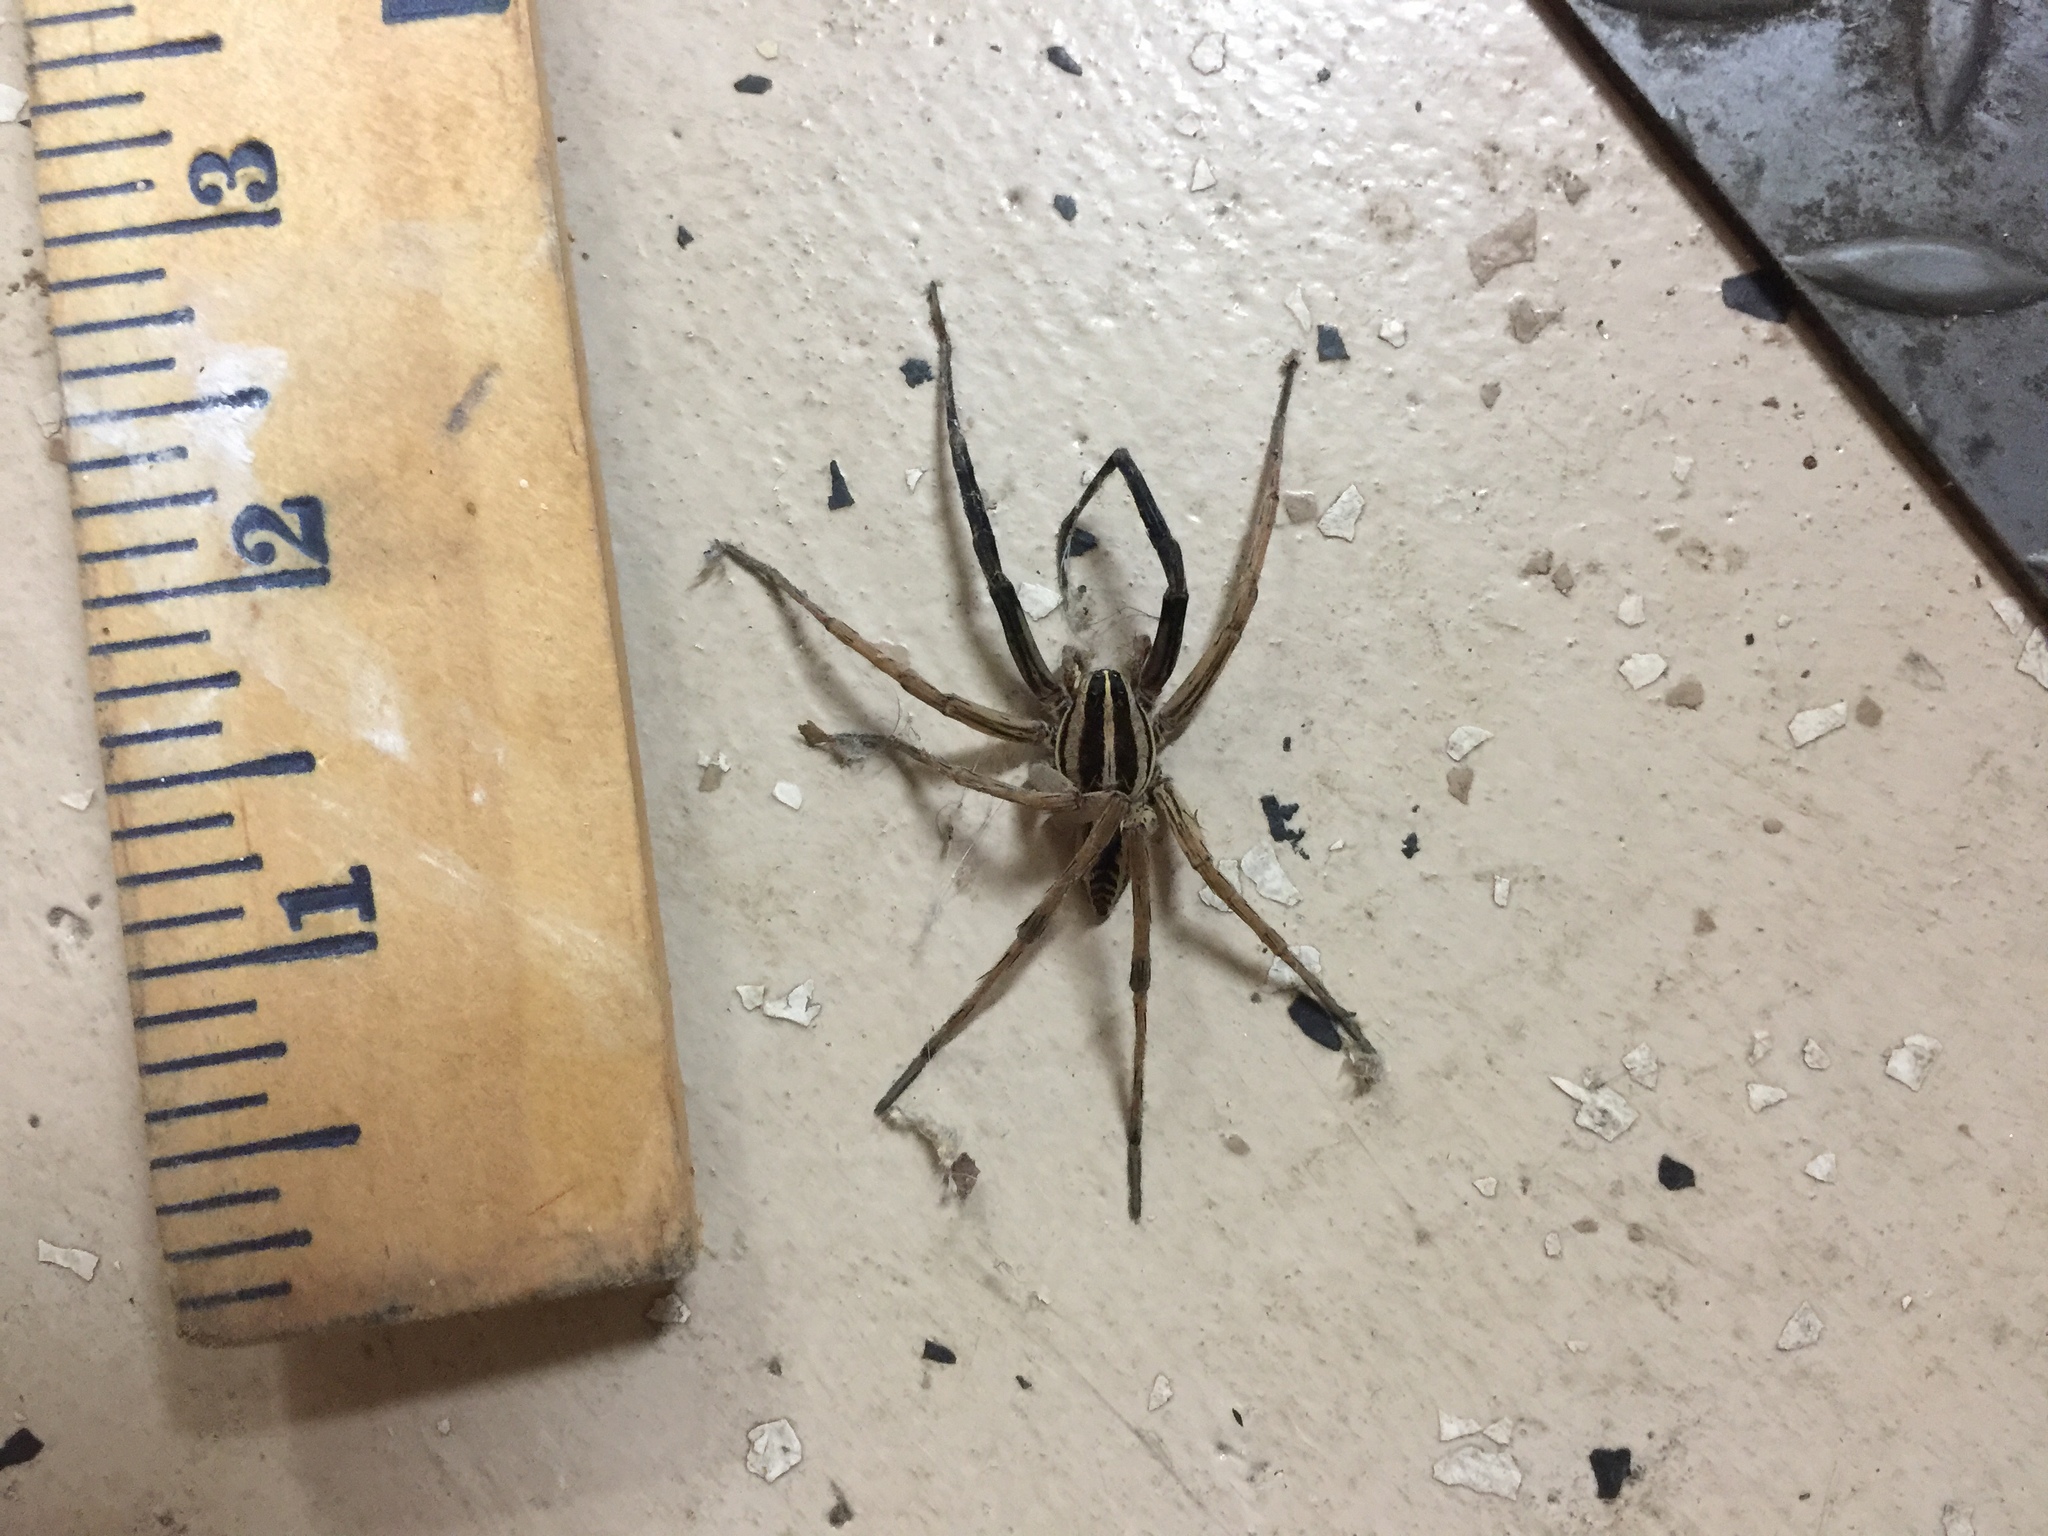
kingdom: Animalia
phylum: Arthropoda
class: Arachnida
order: Araneae
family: Lycosidae
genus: Rabidosa
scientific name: Rabidosa rabida
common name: Rabid wolf spider
